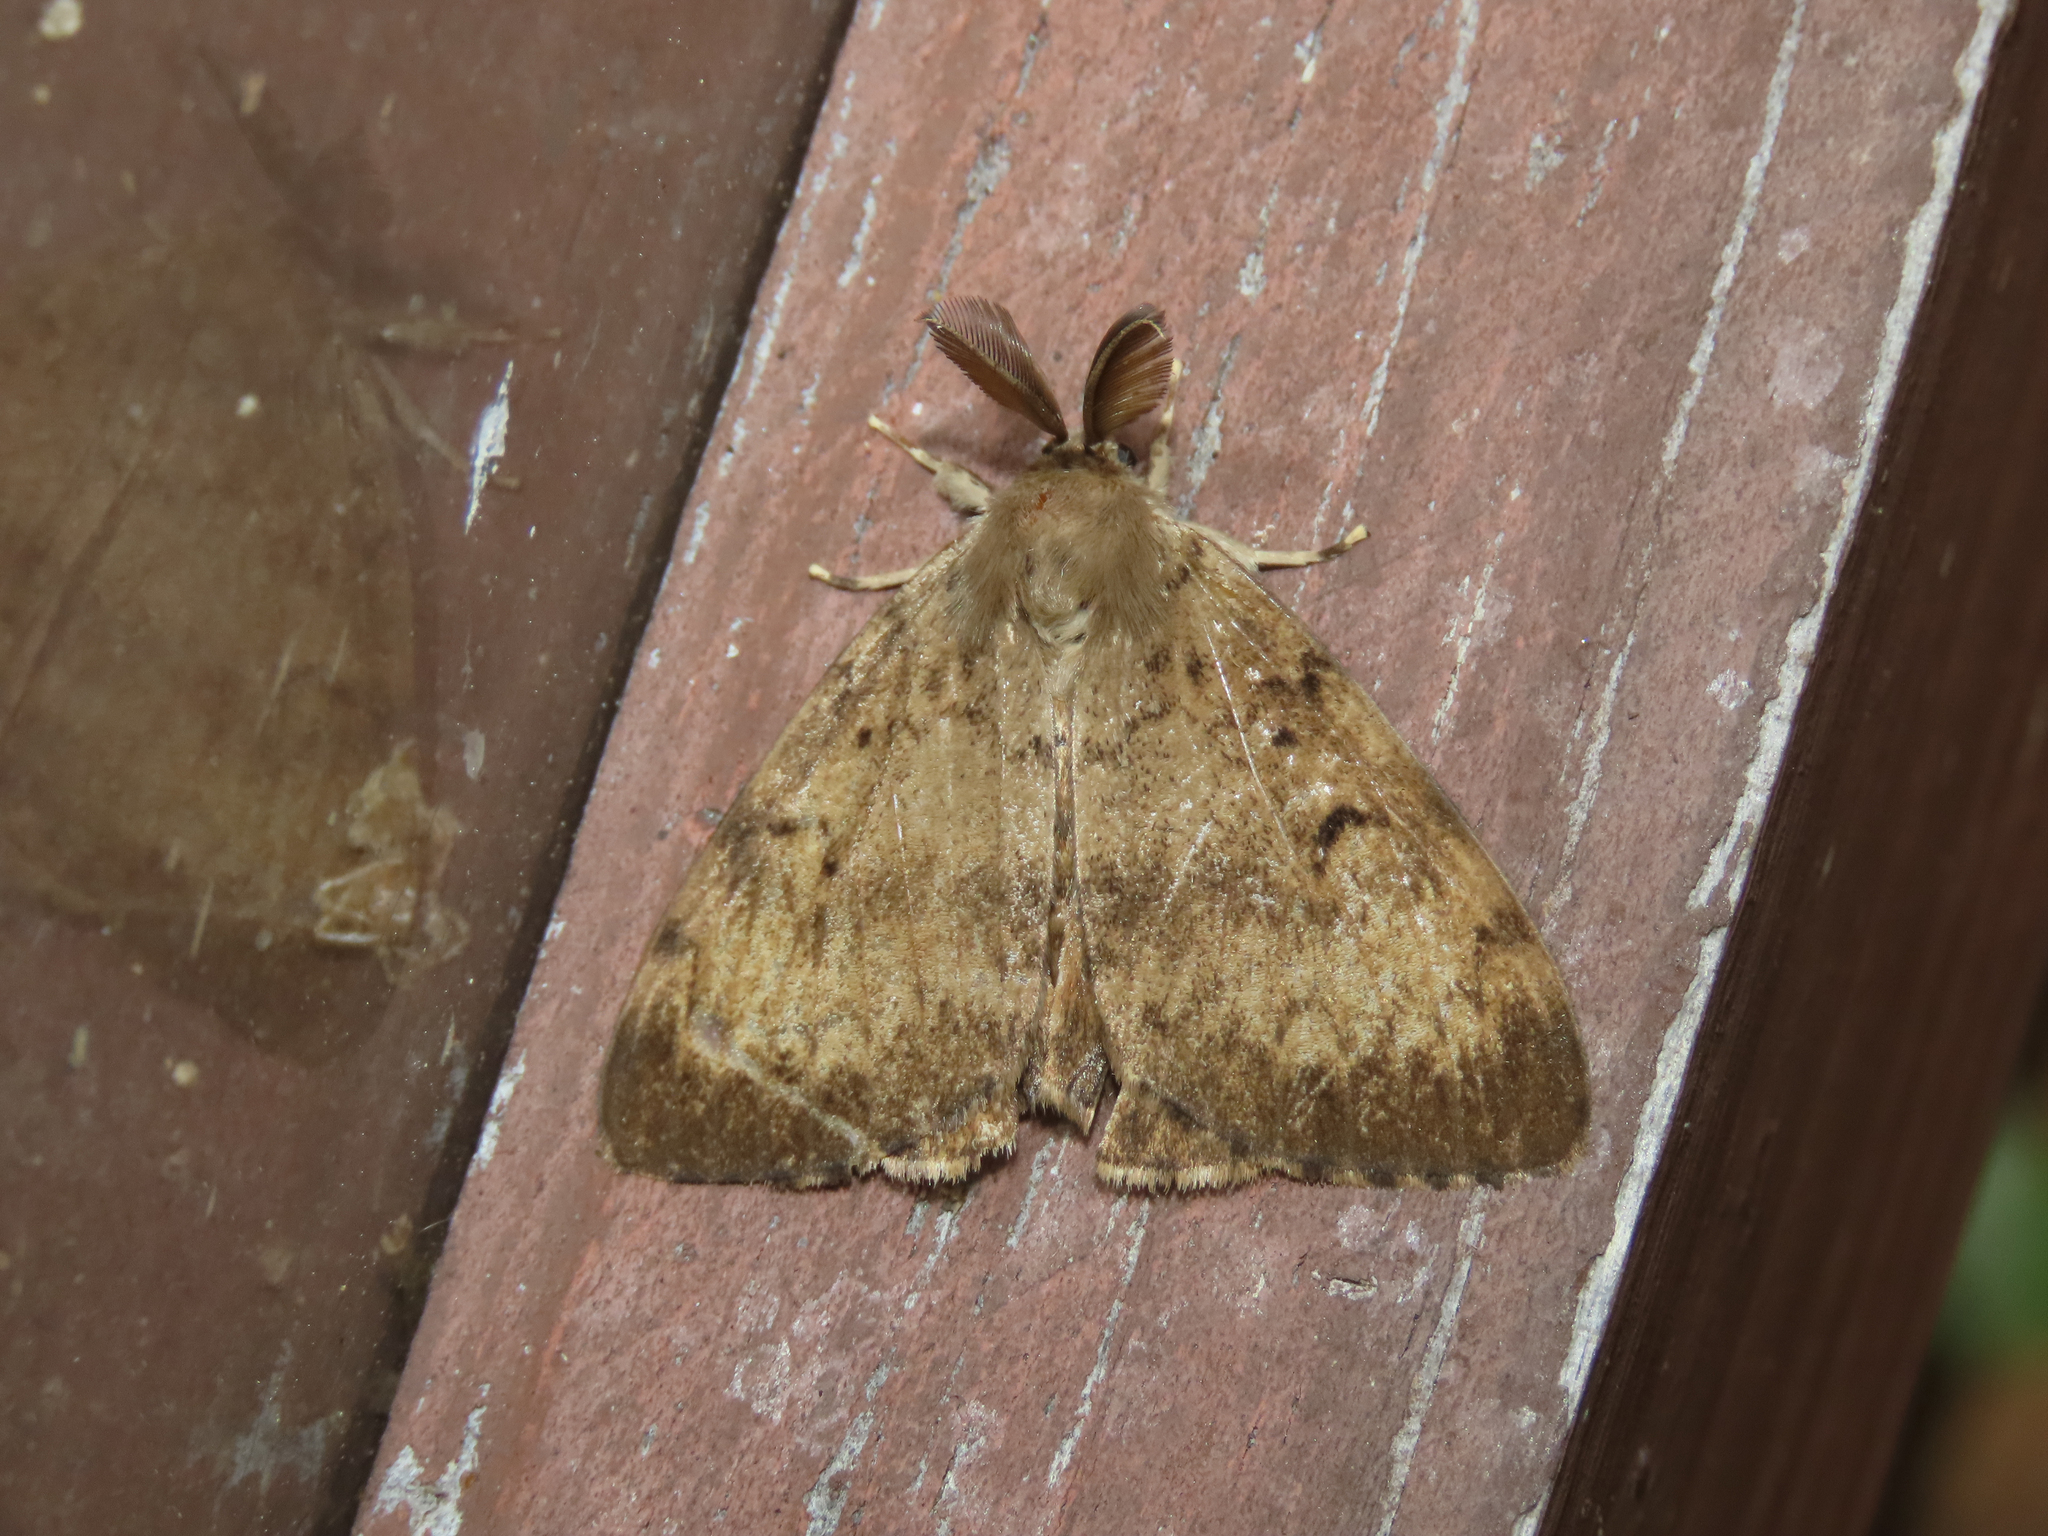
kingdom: Animalia
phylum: Arthropoda
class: Insecta
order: Lepidoptera
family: Erebidae
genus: Lymantria
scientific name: Lymantria dispar
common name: Gypsy moth
